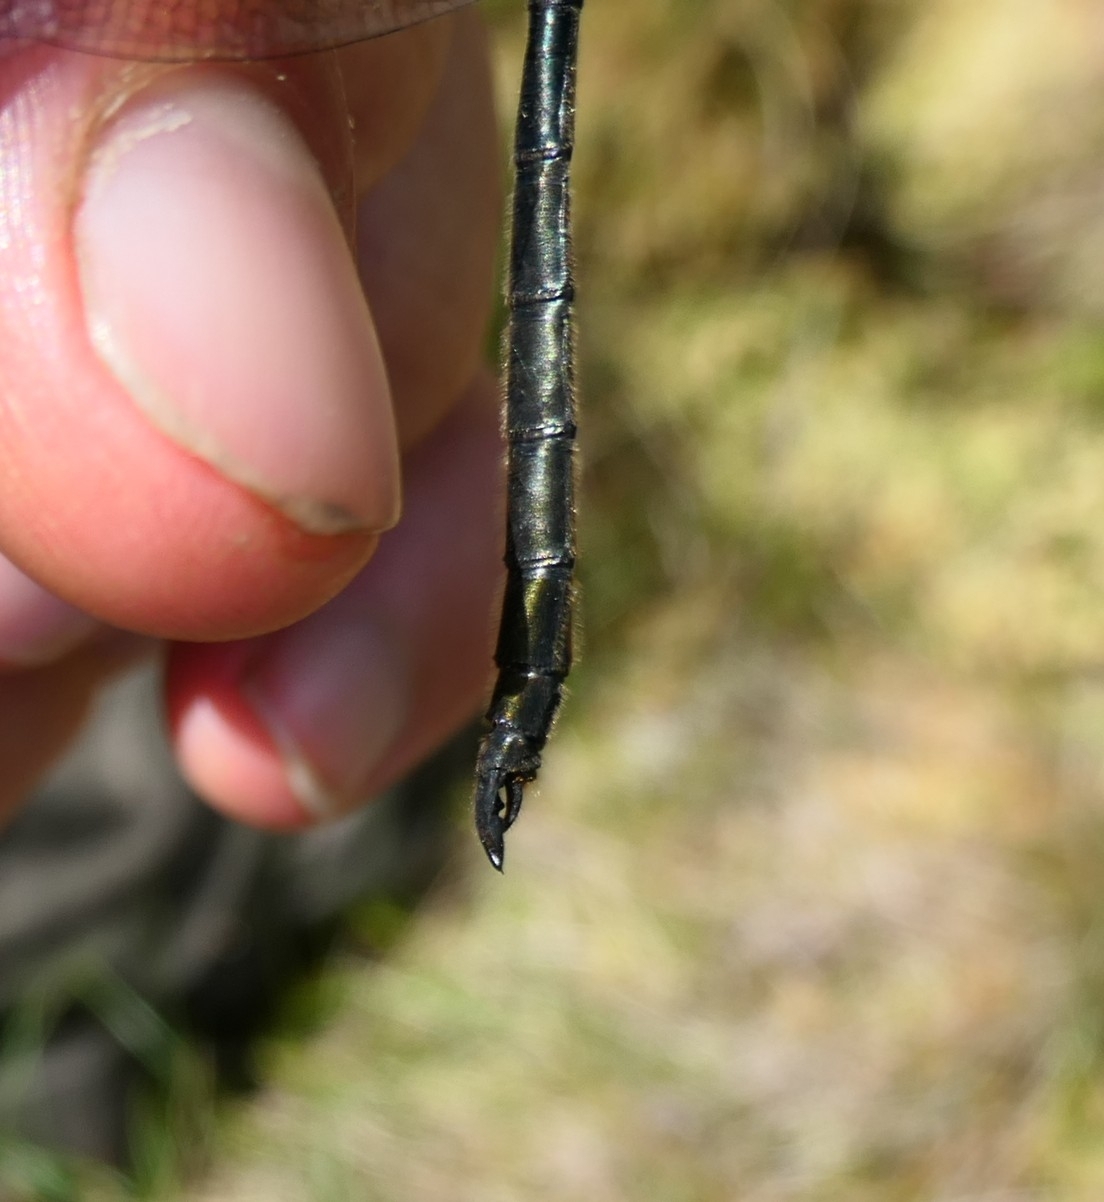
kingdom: Animalia
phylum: Arthropoda
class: Insecta
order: Odonata
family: Corduliidae
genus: Somatochlora
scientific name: Somatochlora arctica
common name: Northern emerald
